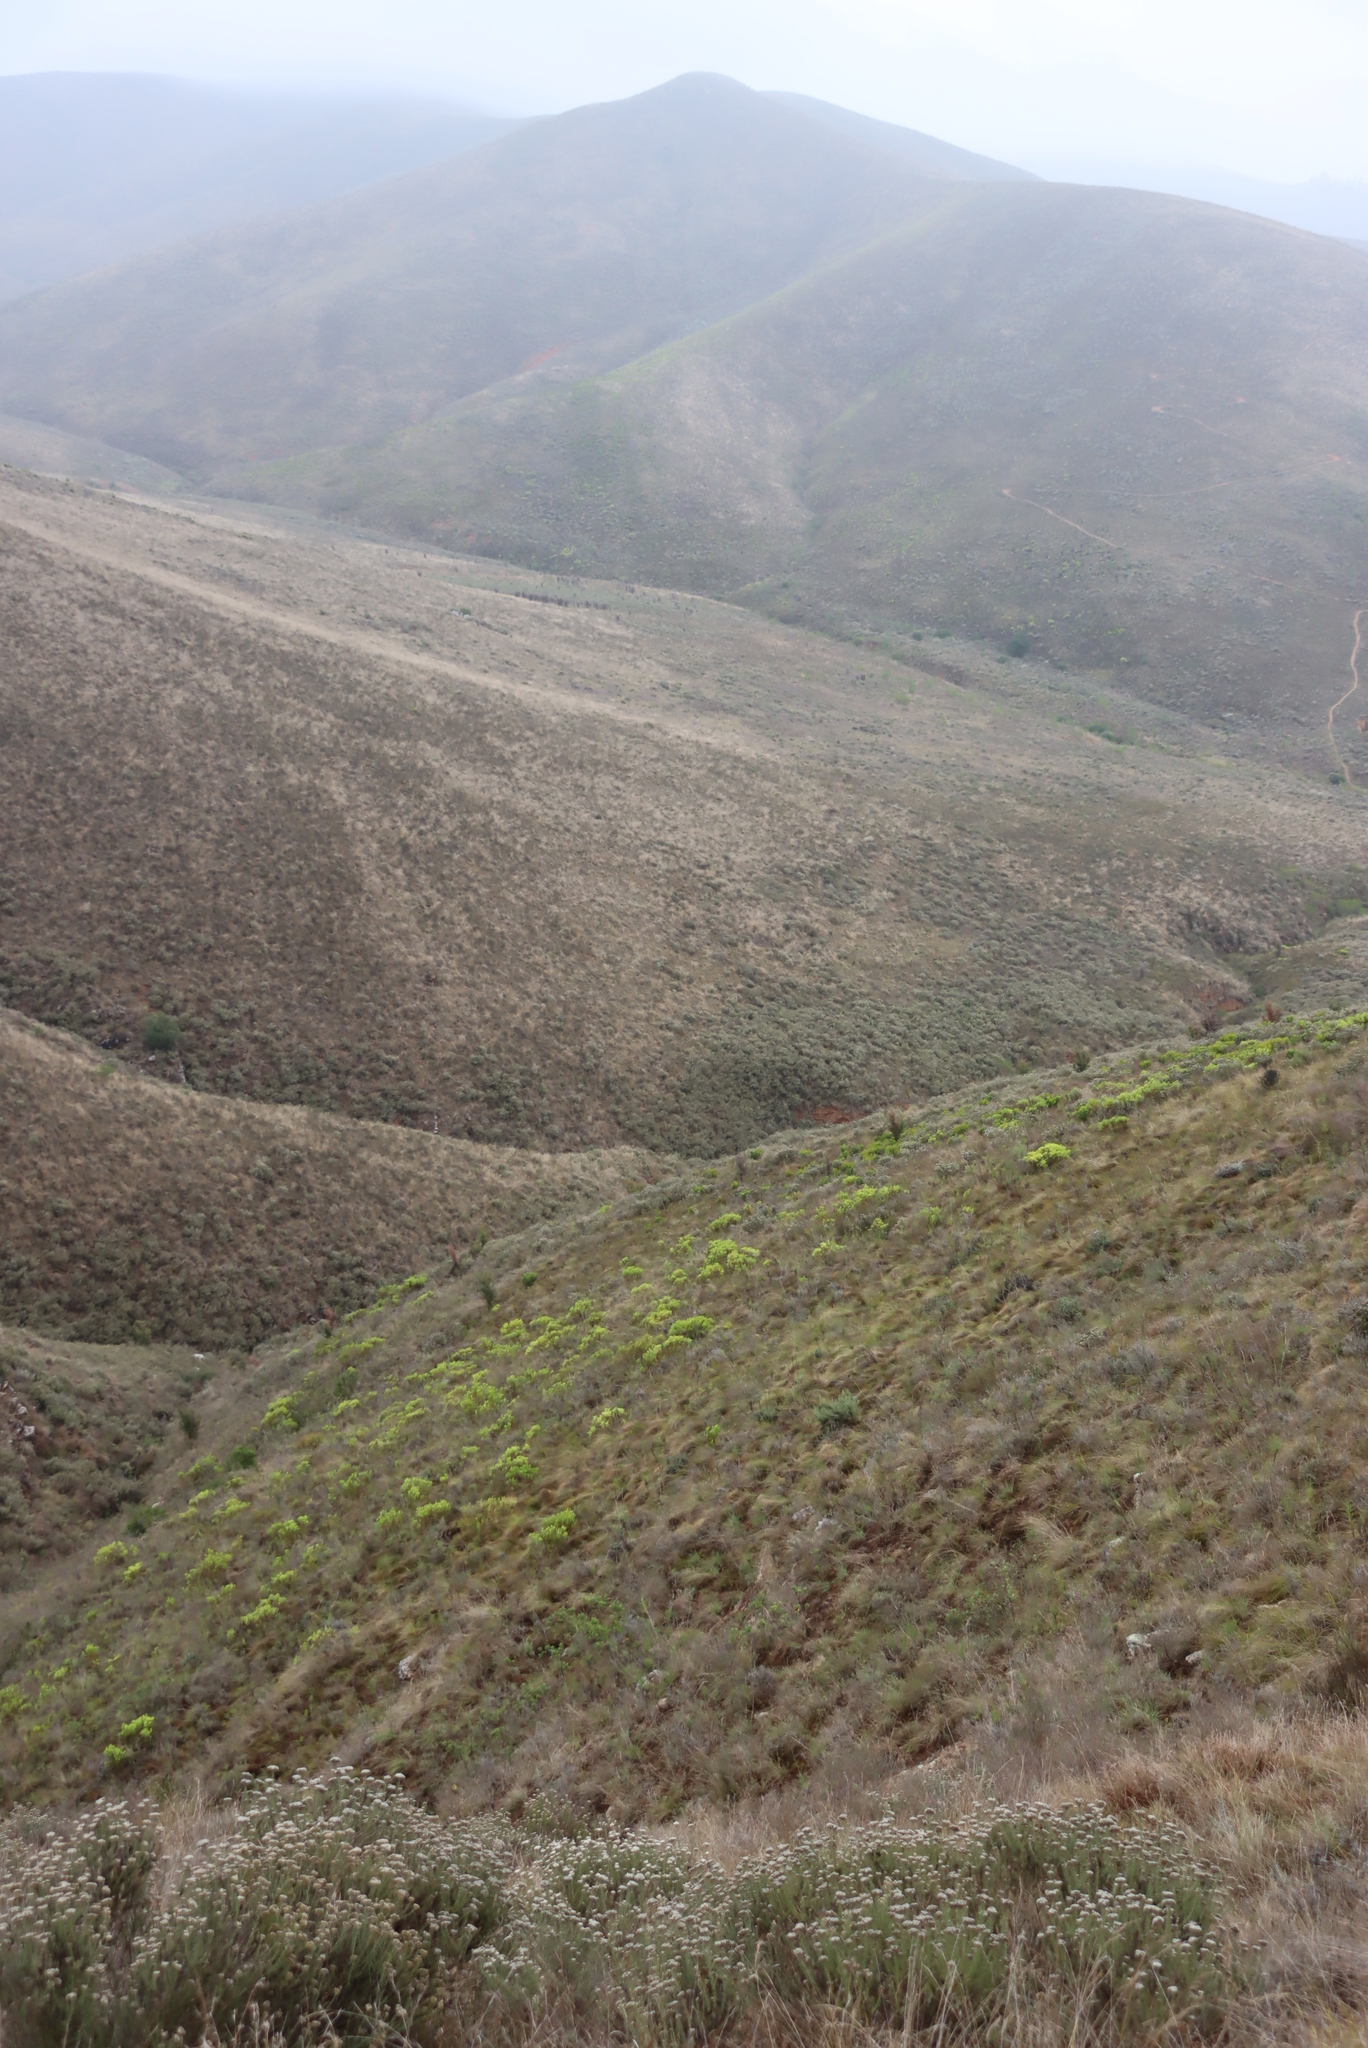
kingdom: Plantae
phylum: Tracheophyta
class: Magnoliopsida
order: Proteales
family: Proteaceae
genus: Hakea
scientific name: Hakea sericea
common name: Needle bush
